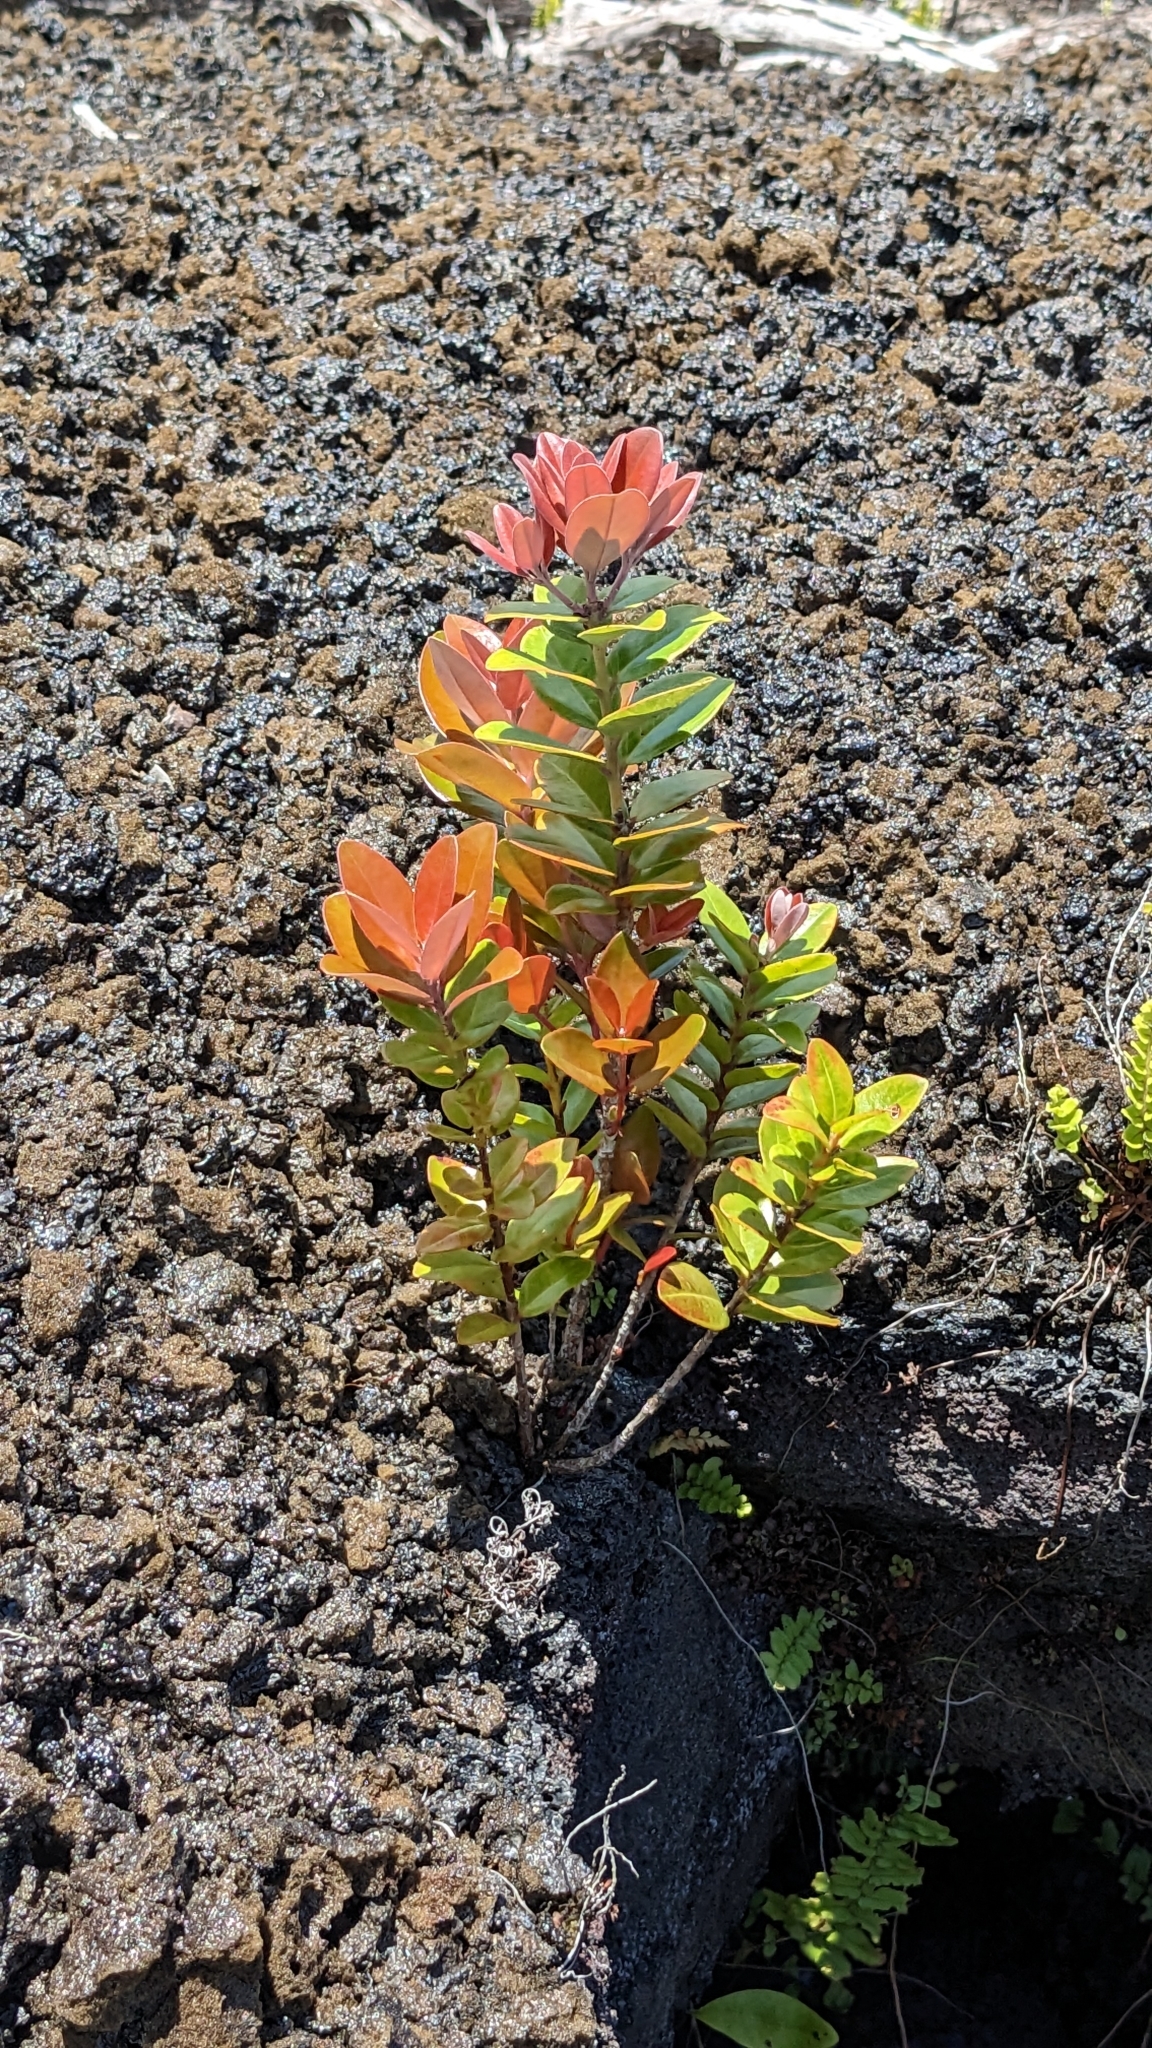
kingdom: Plantae
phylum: Tracheophyta
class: Magnoliopsida
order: Myrtales
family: Myrtaceae
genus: Metrosideros
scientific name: Metrosideros polymorpha
